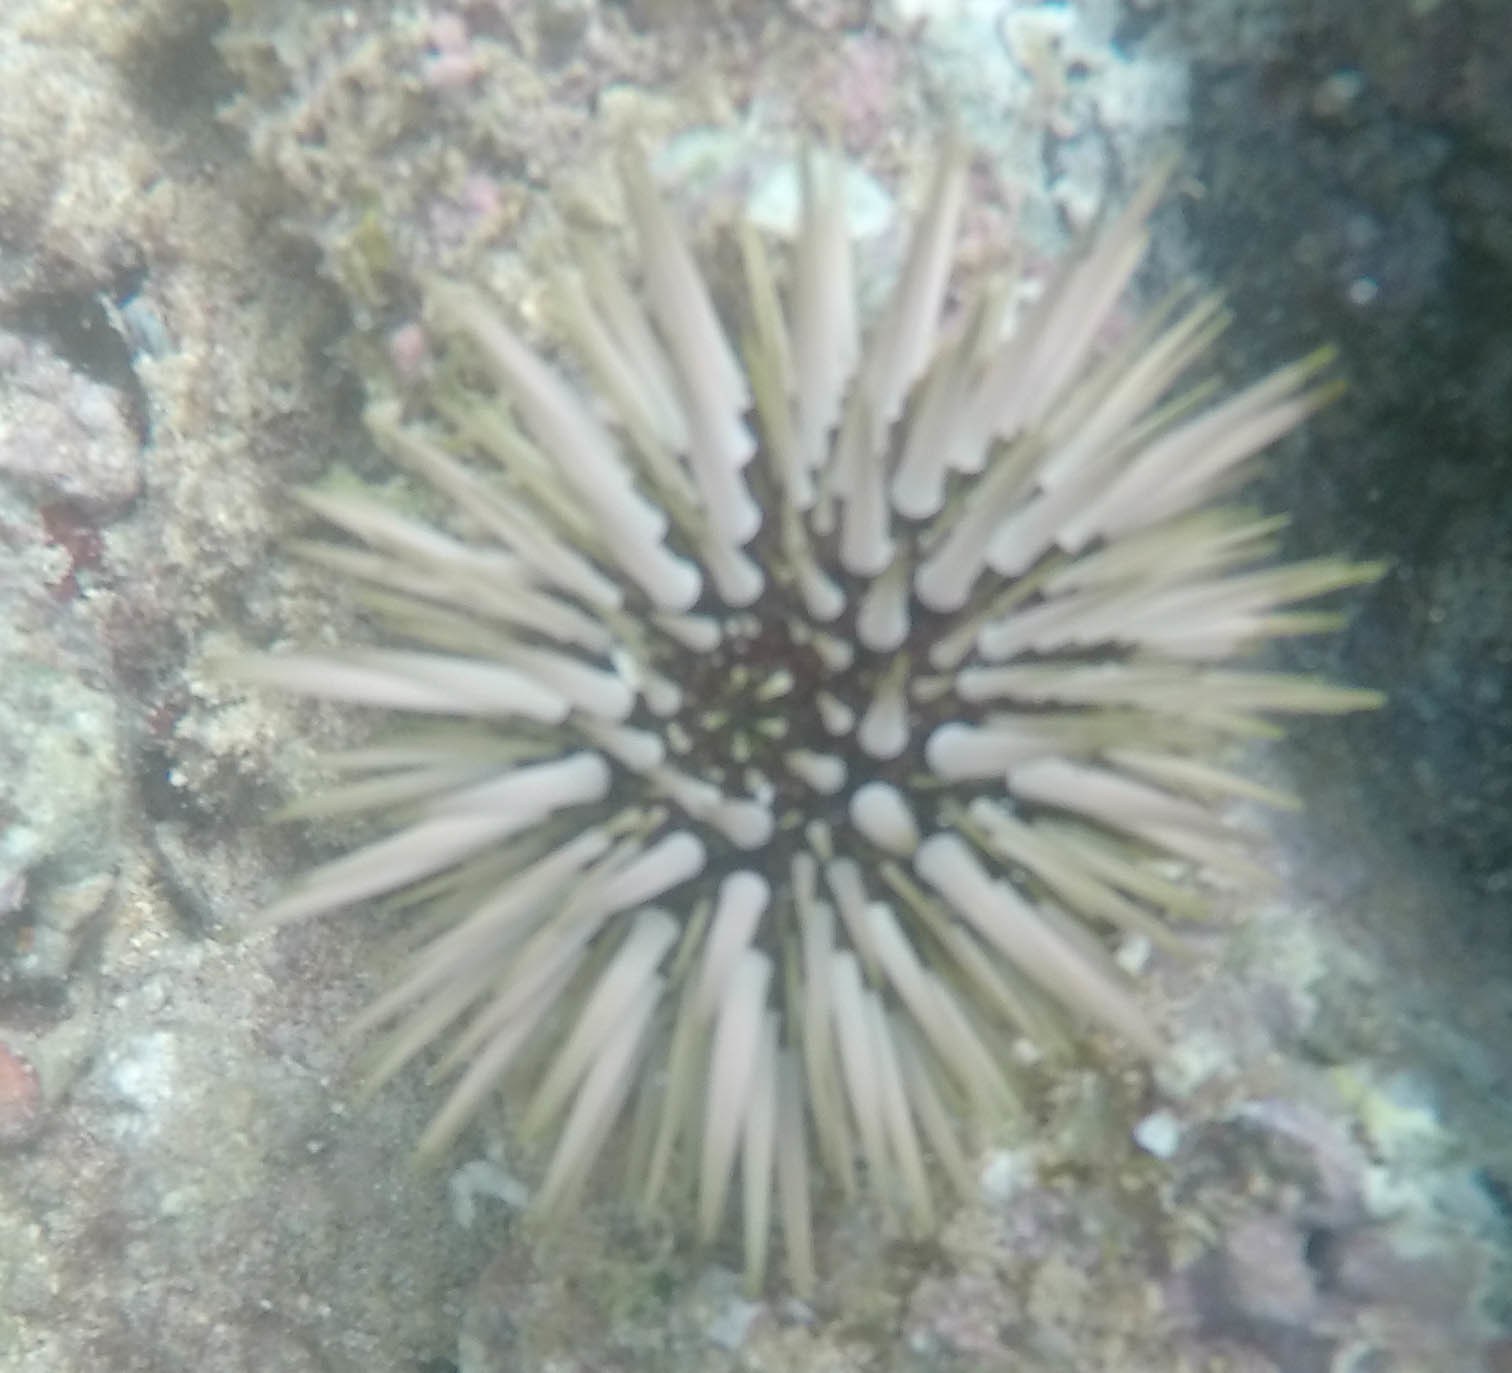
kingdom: Animalia
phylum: Echinodermata
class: Echinoidea
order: Camarodonta
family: Echinometridae
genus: Echinometra
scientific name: Echinometra mathaei
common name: Rock-boring urchin
